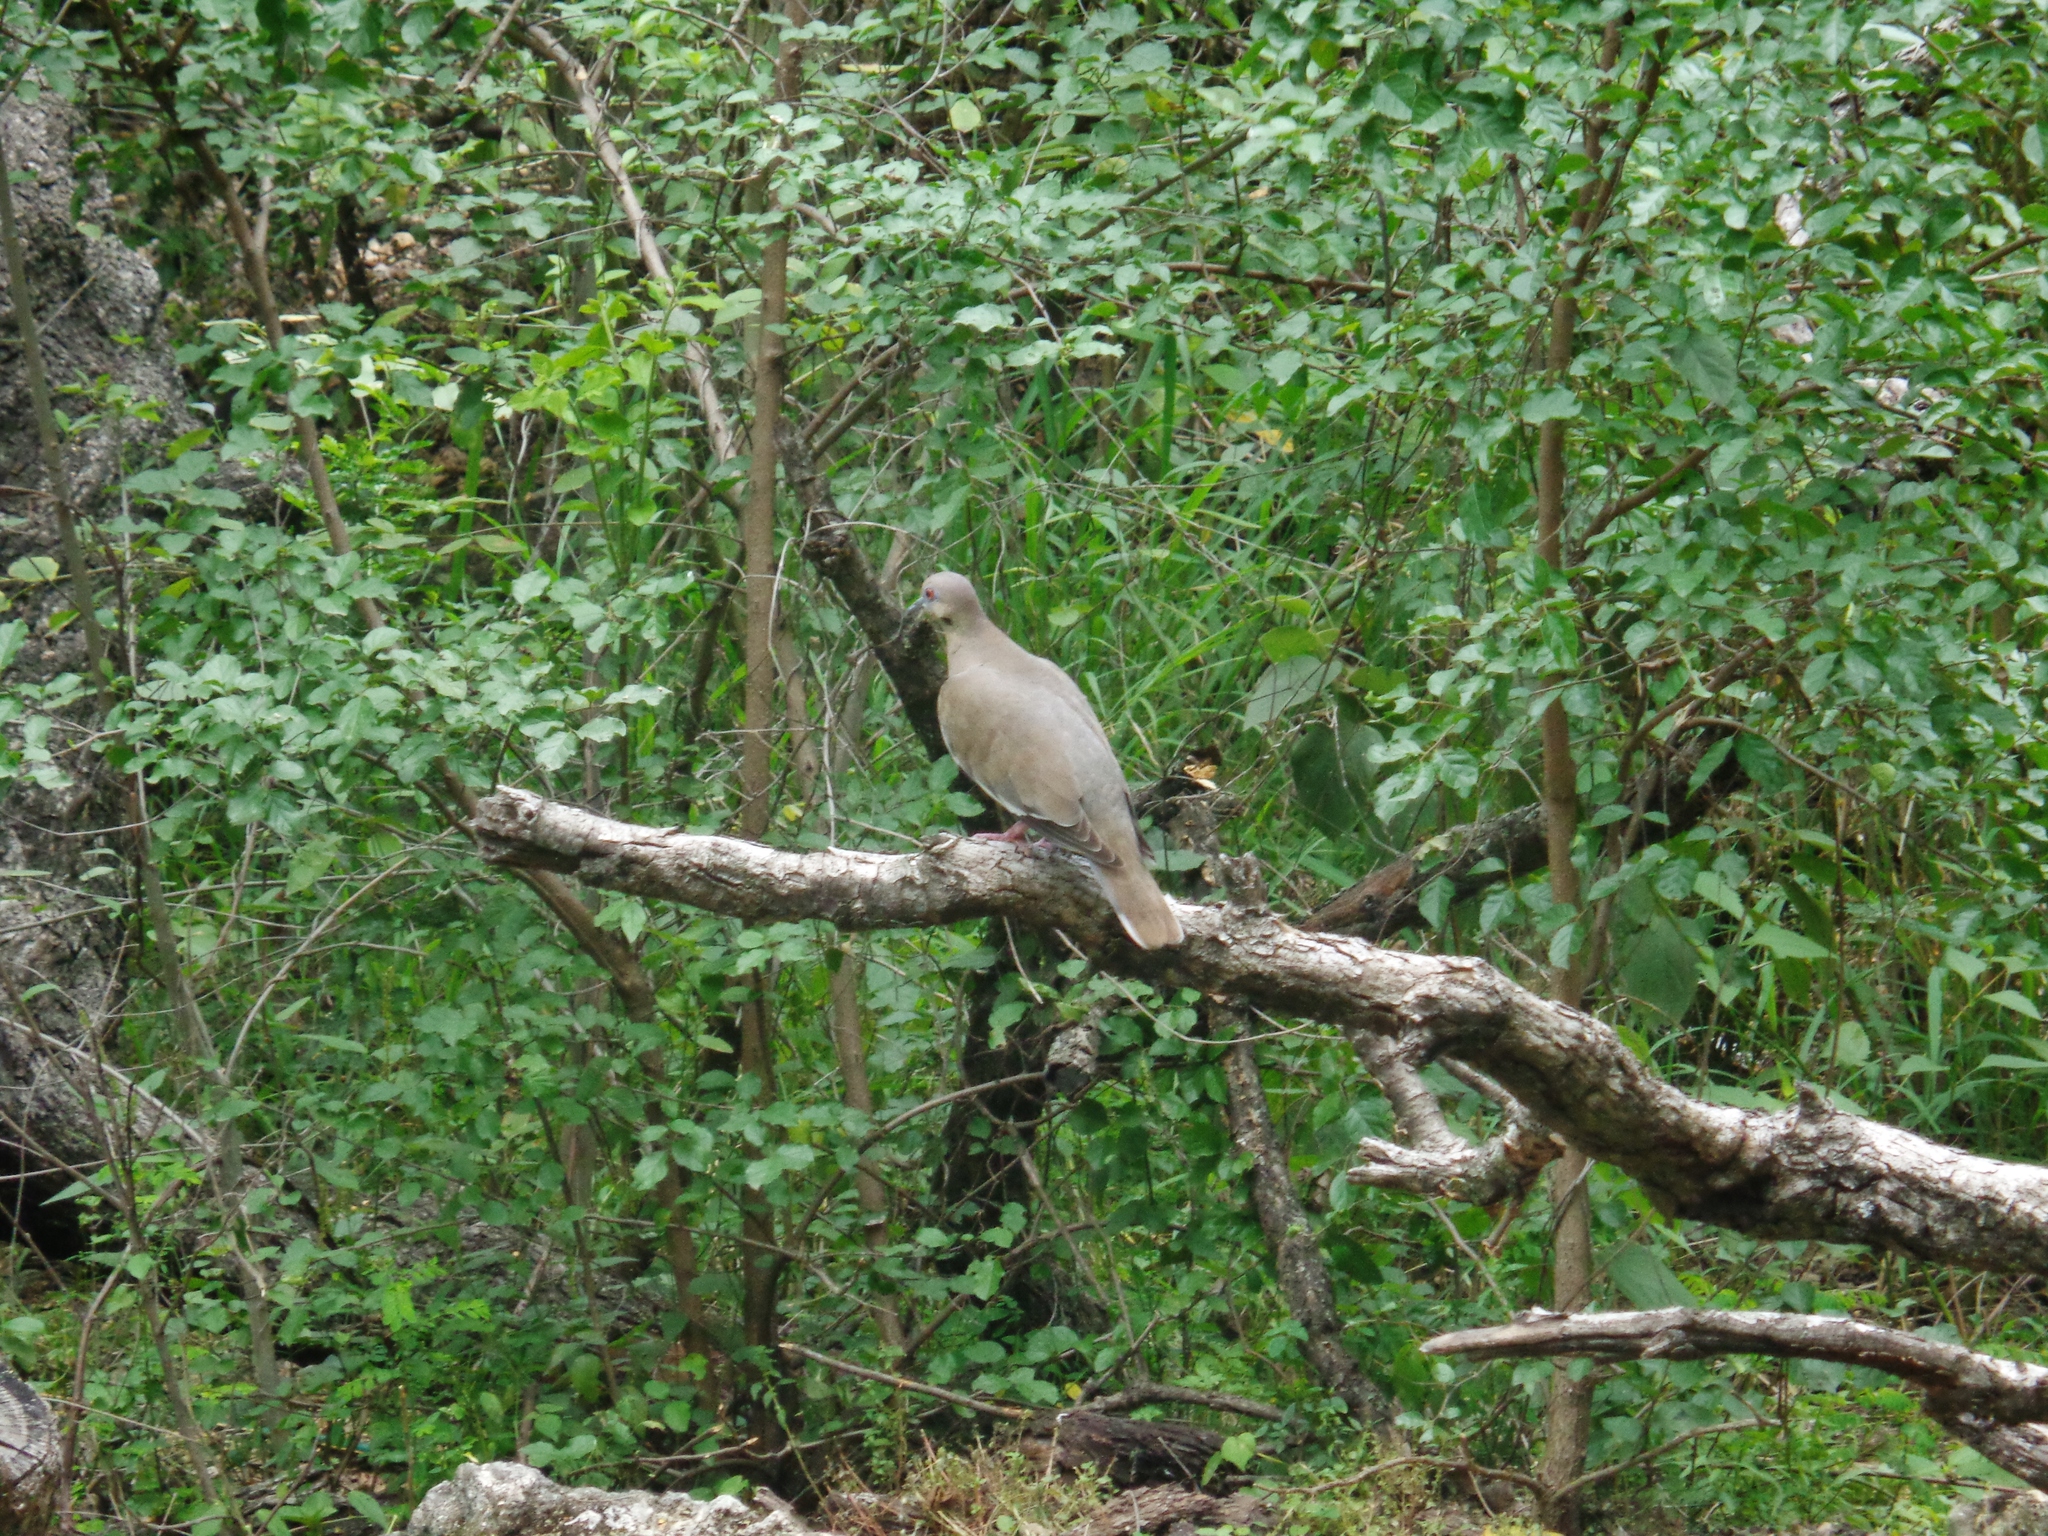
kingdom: Animalia
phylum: Chordata
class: Aves
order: Columbiformes
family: Columbidae
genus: Zenaida
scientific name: Zenaida asiatica
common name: White-winged dove
